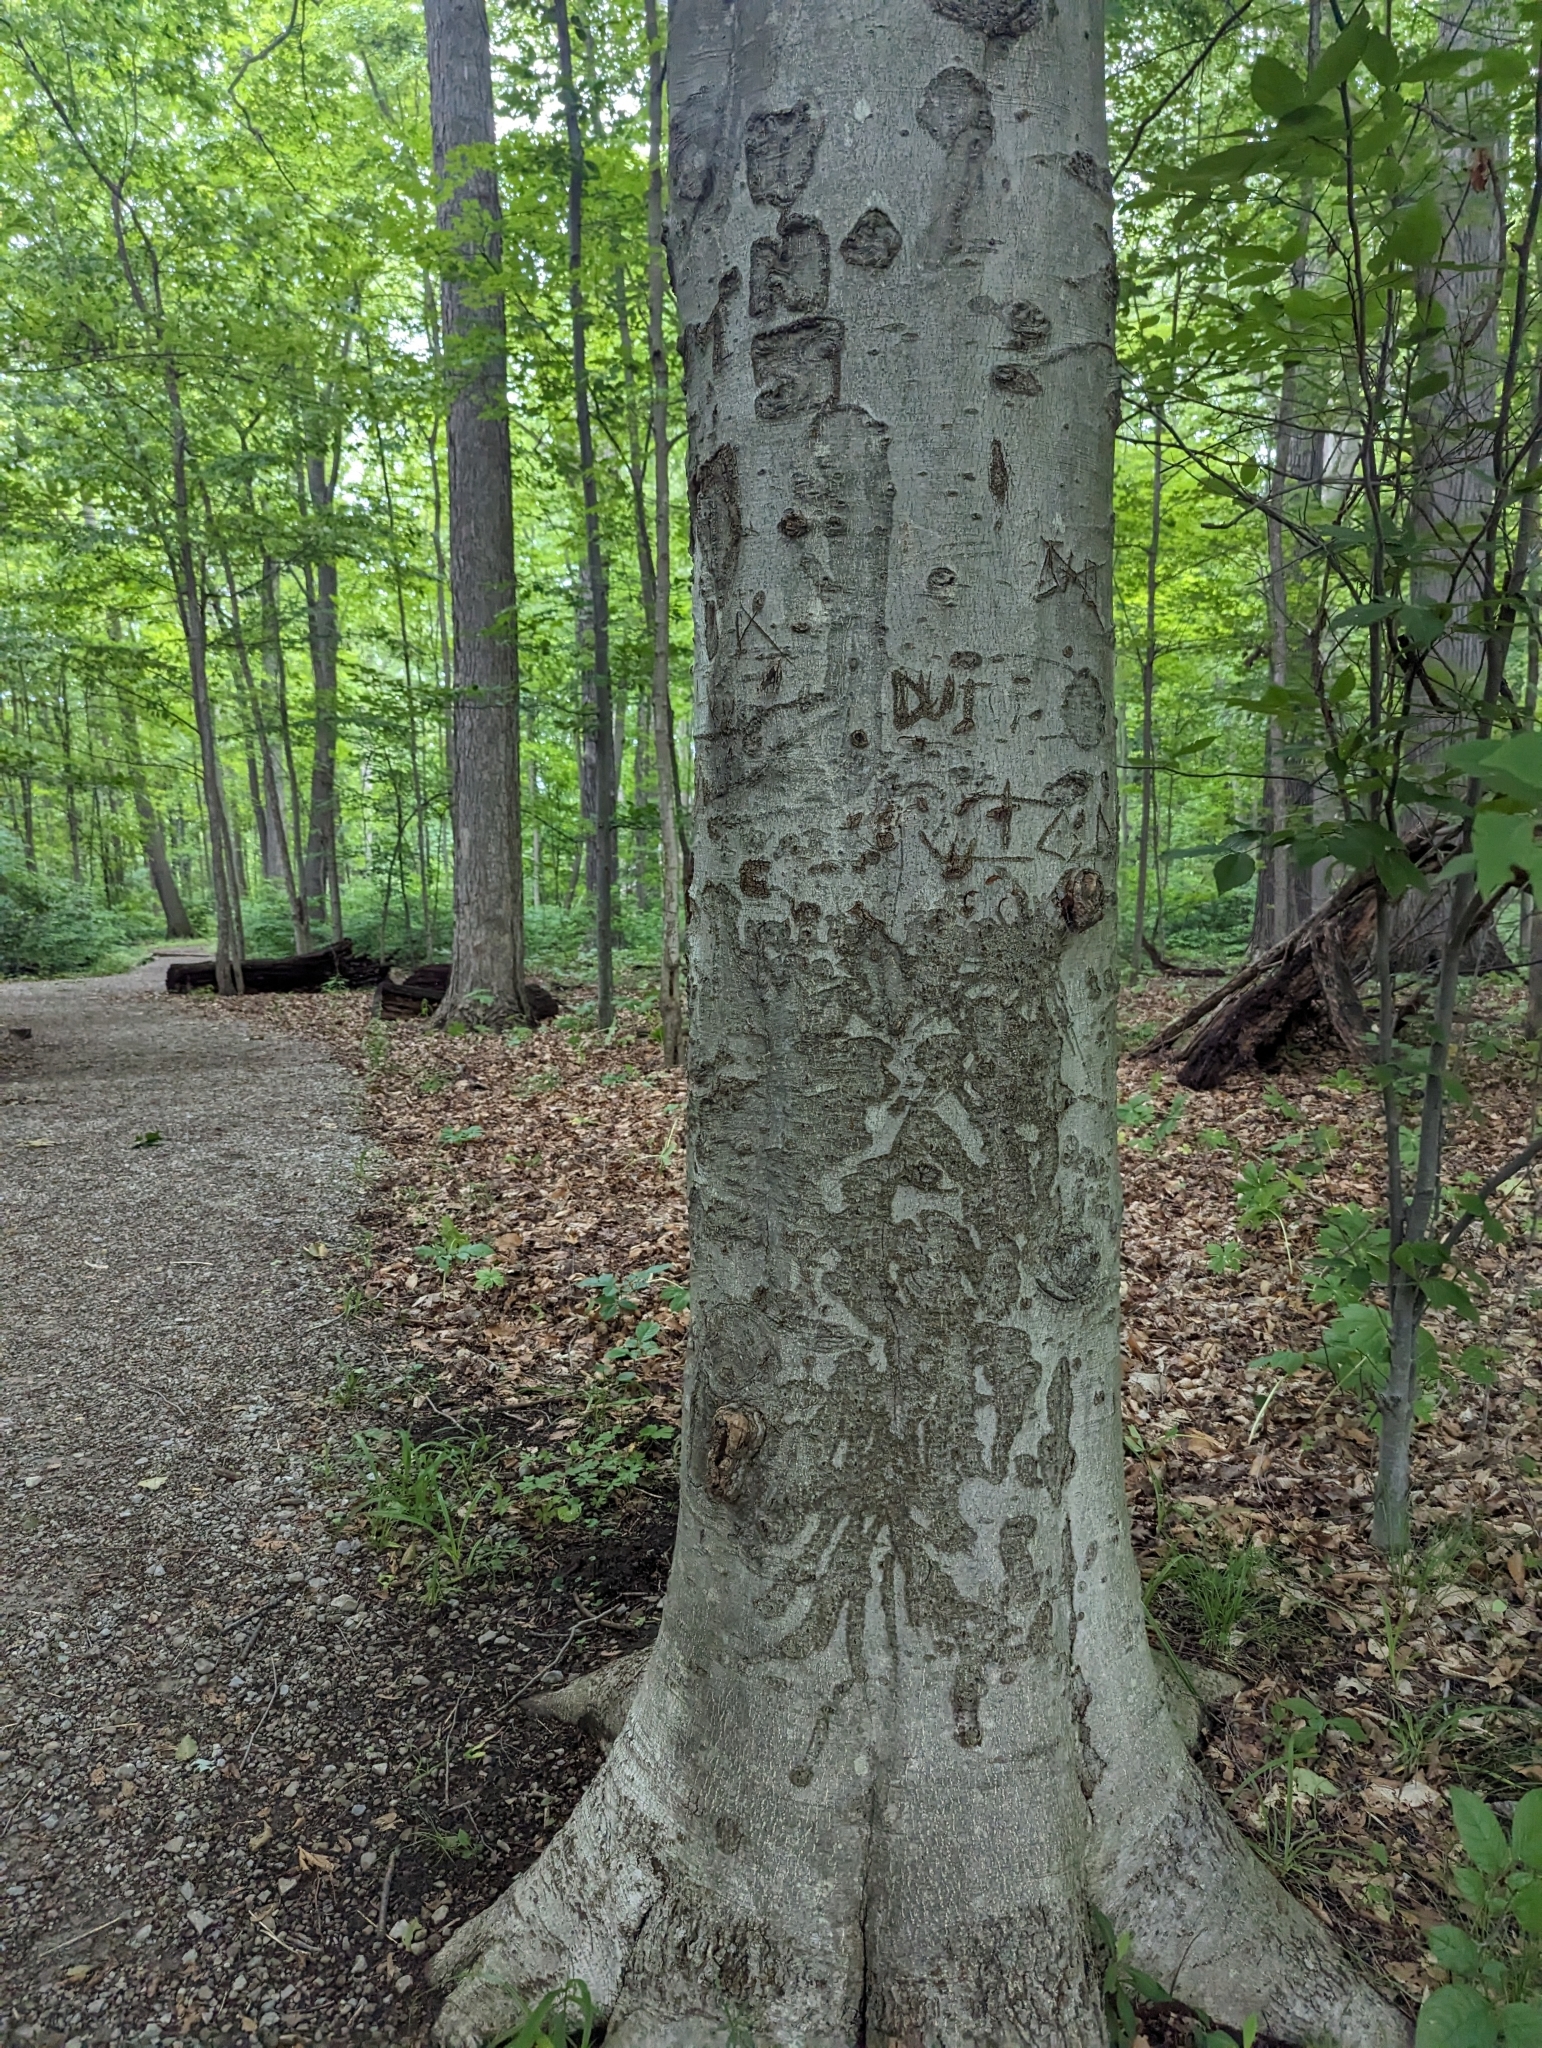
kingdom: Plantae
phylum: Tracheophyta
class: Magnoliopsida
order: Fagales
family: Fagaceae
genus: Fagus
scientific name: Fagus grandifolia
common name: American beech
